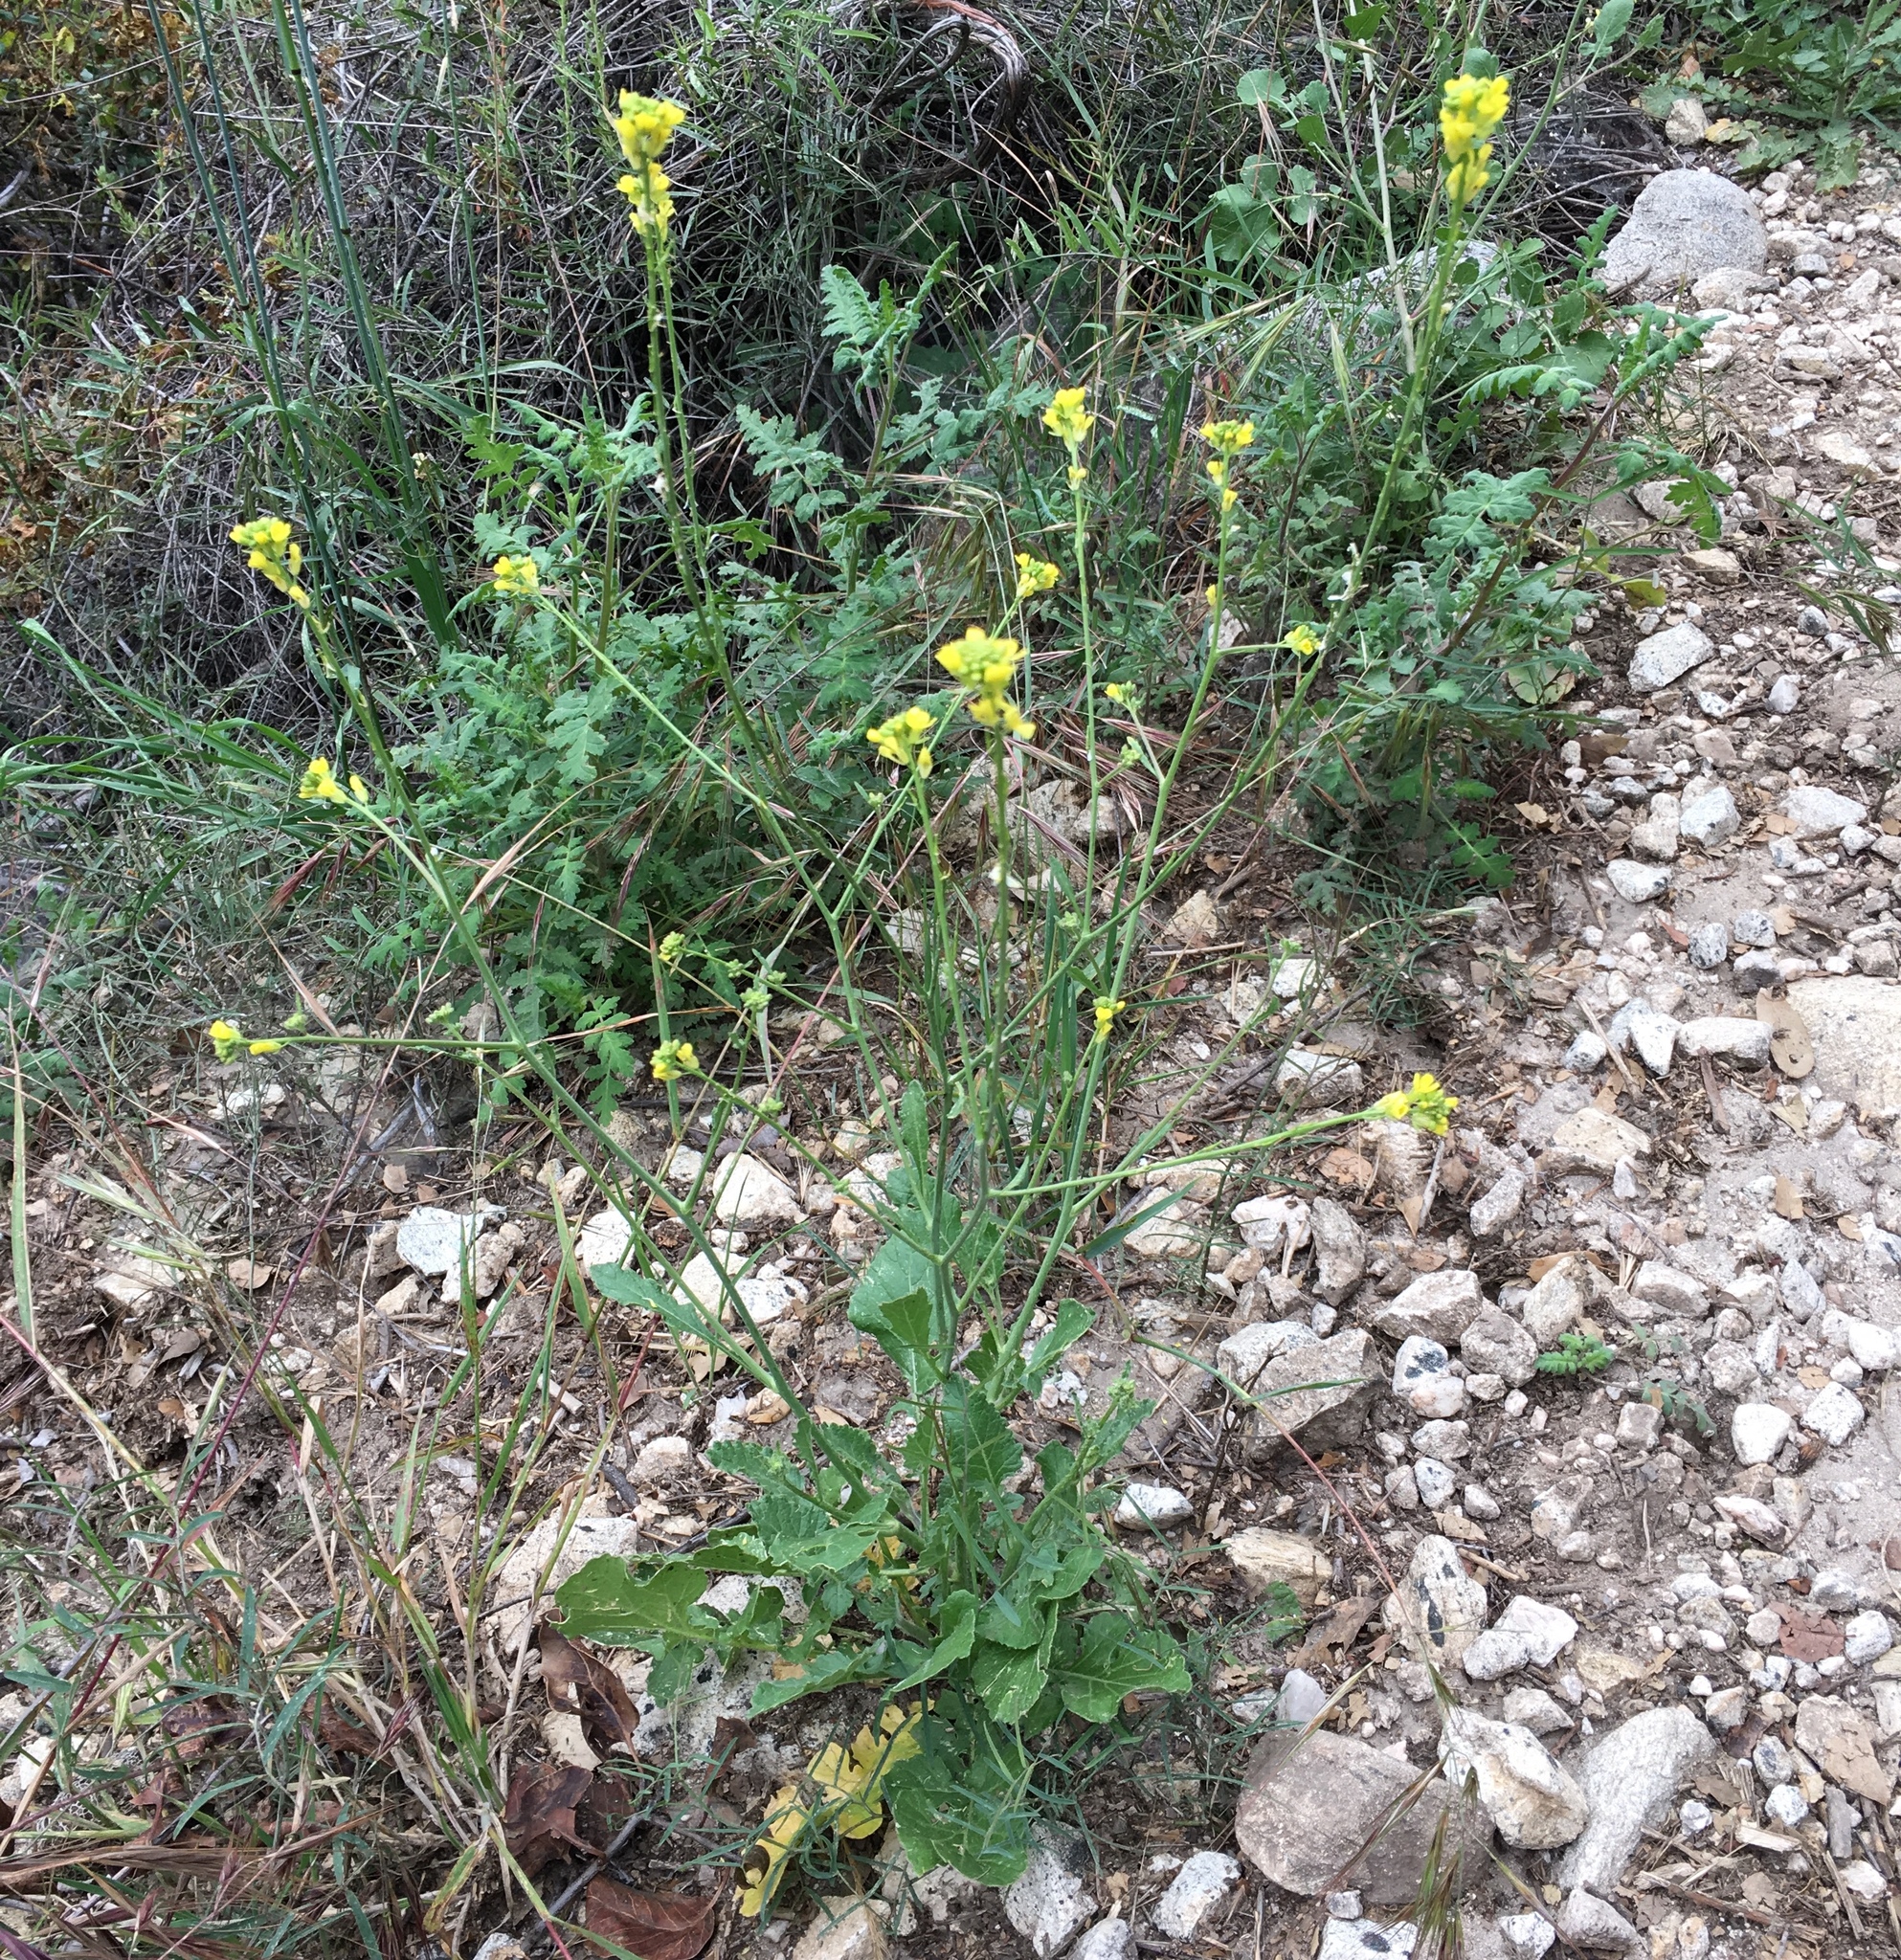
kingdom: Plantae
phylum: Tracheophyta
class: Magnoliopsida
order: Brassicales
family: Brassicaceae
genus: Hirschfeldia
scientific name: Hirschfeldia incana
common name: Hoary mustard
